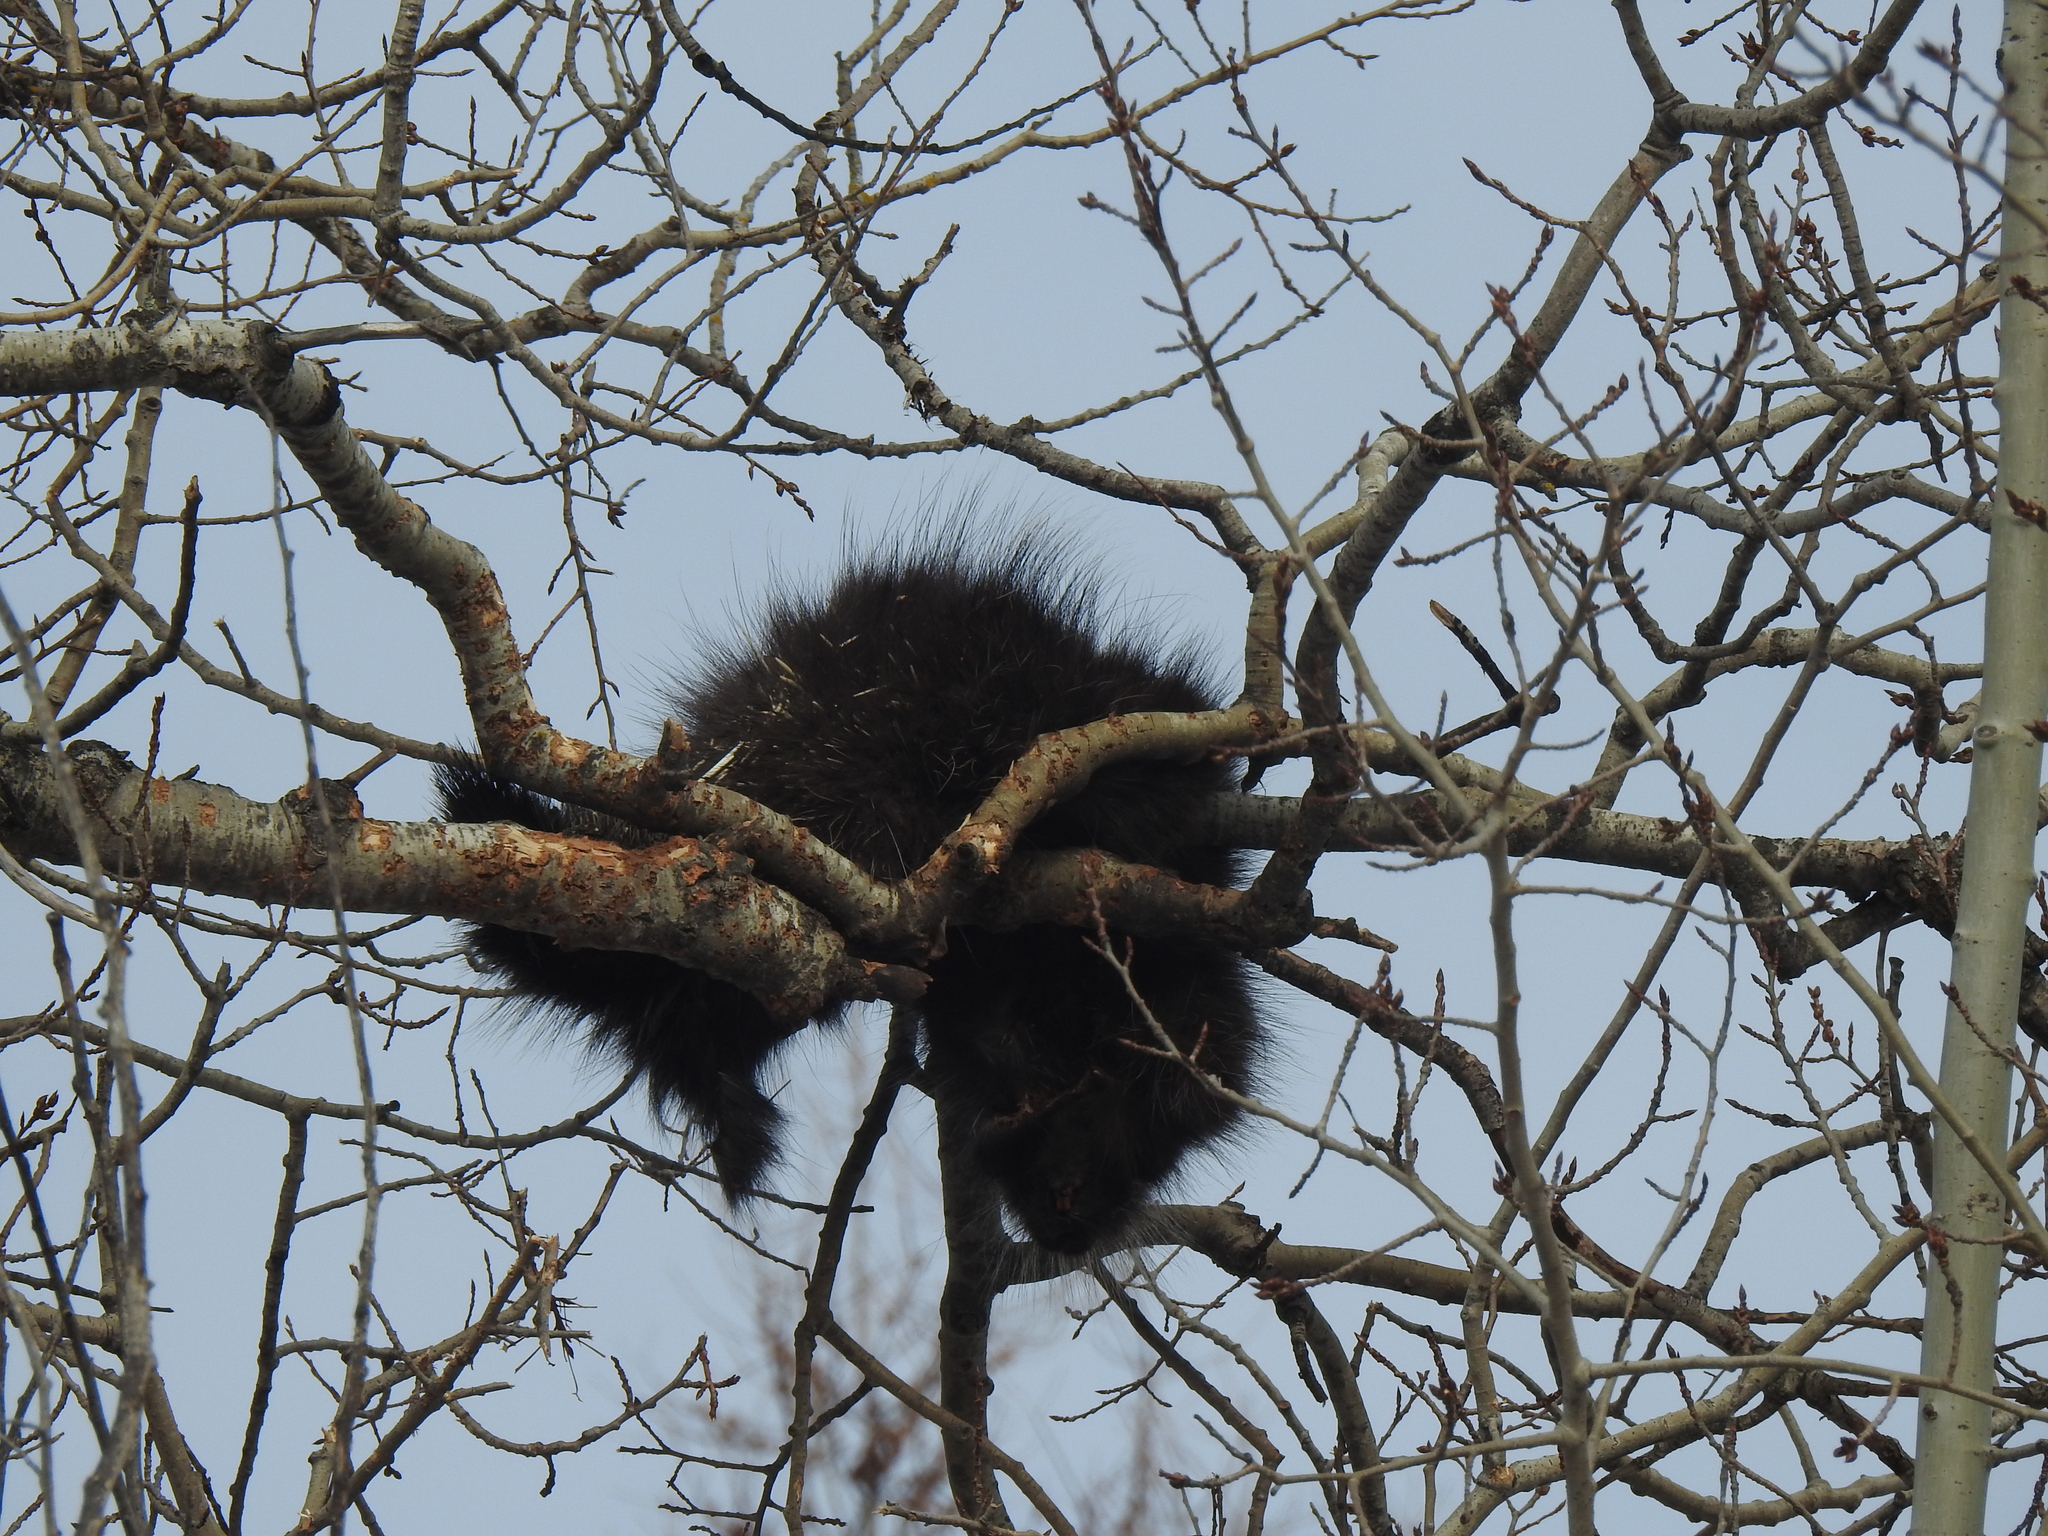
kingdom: Animalia
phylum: Chordata
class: Mammalia
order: Rodentia
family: Erethizontidae
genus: Erethizon
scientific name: Erethizon dorsatus
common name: North american porcupine
